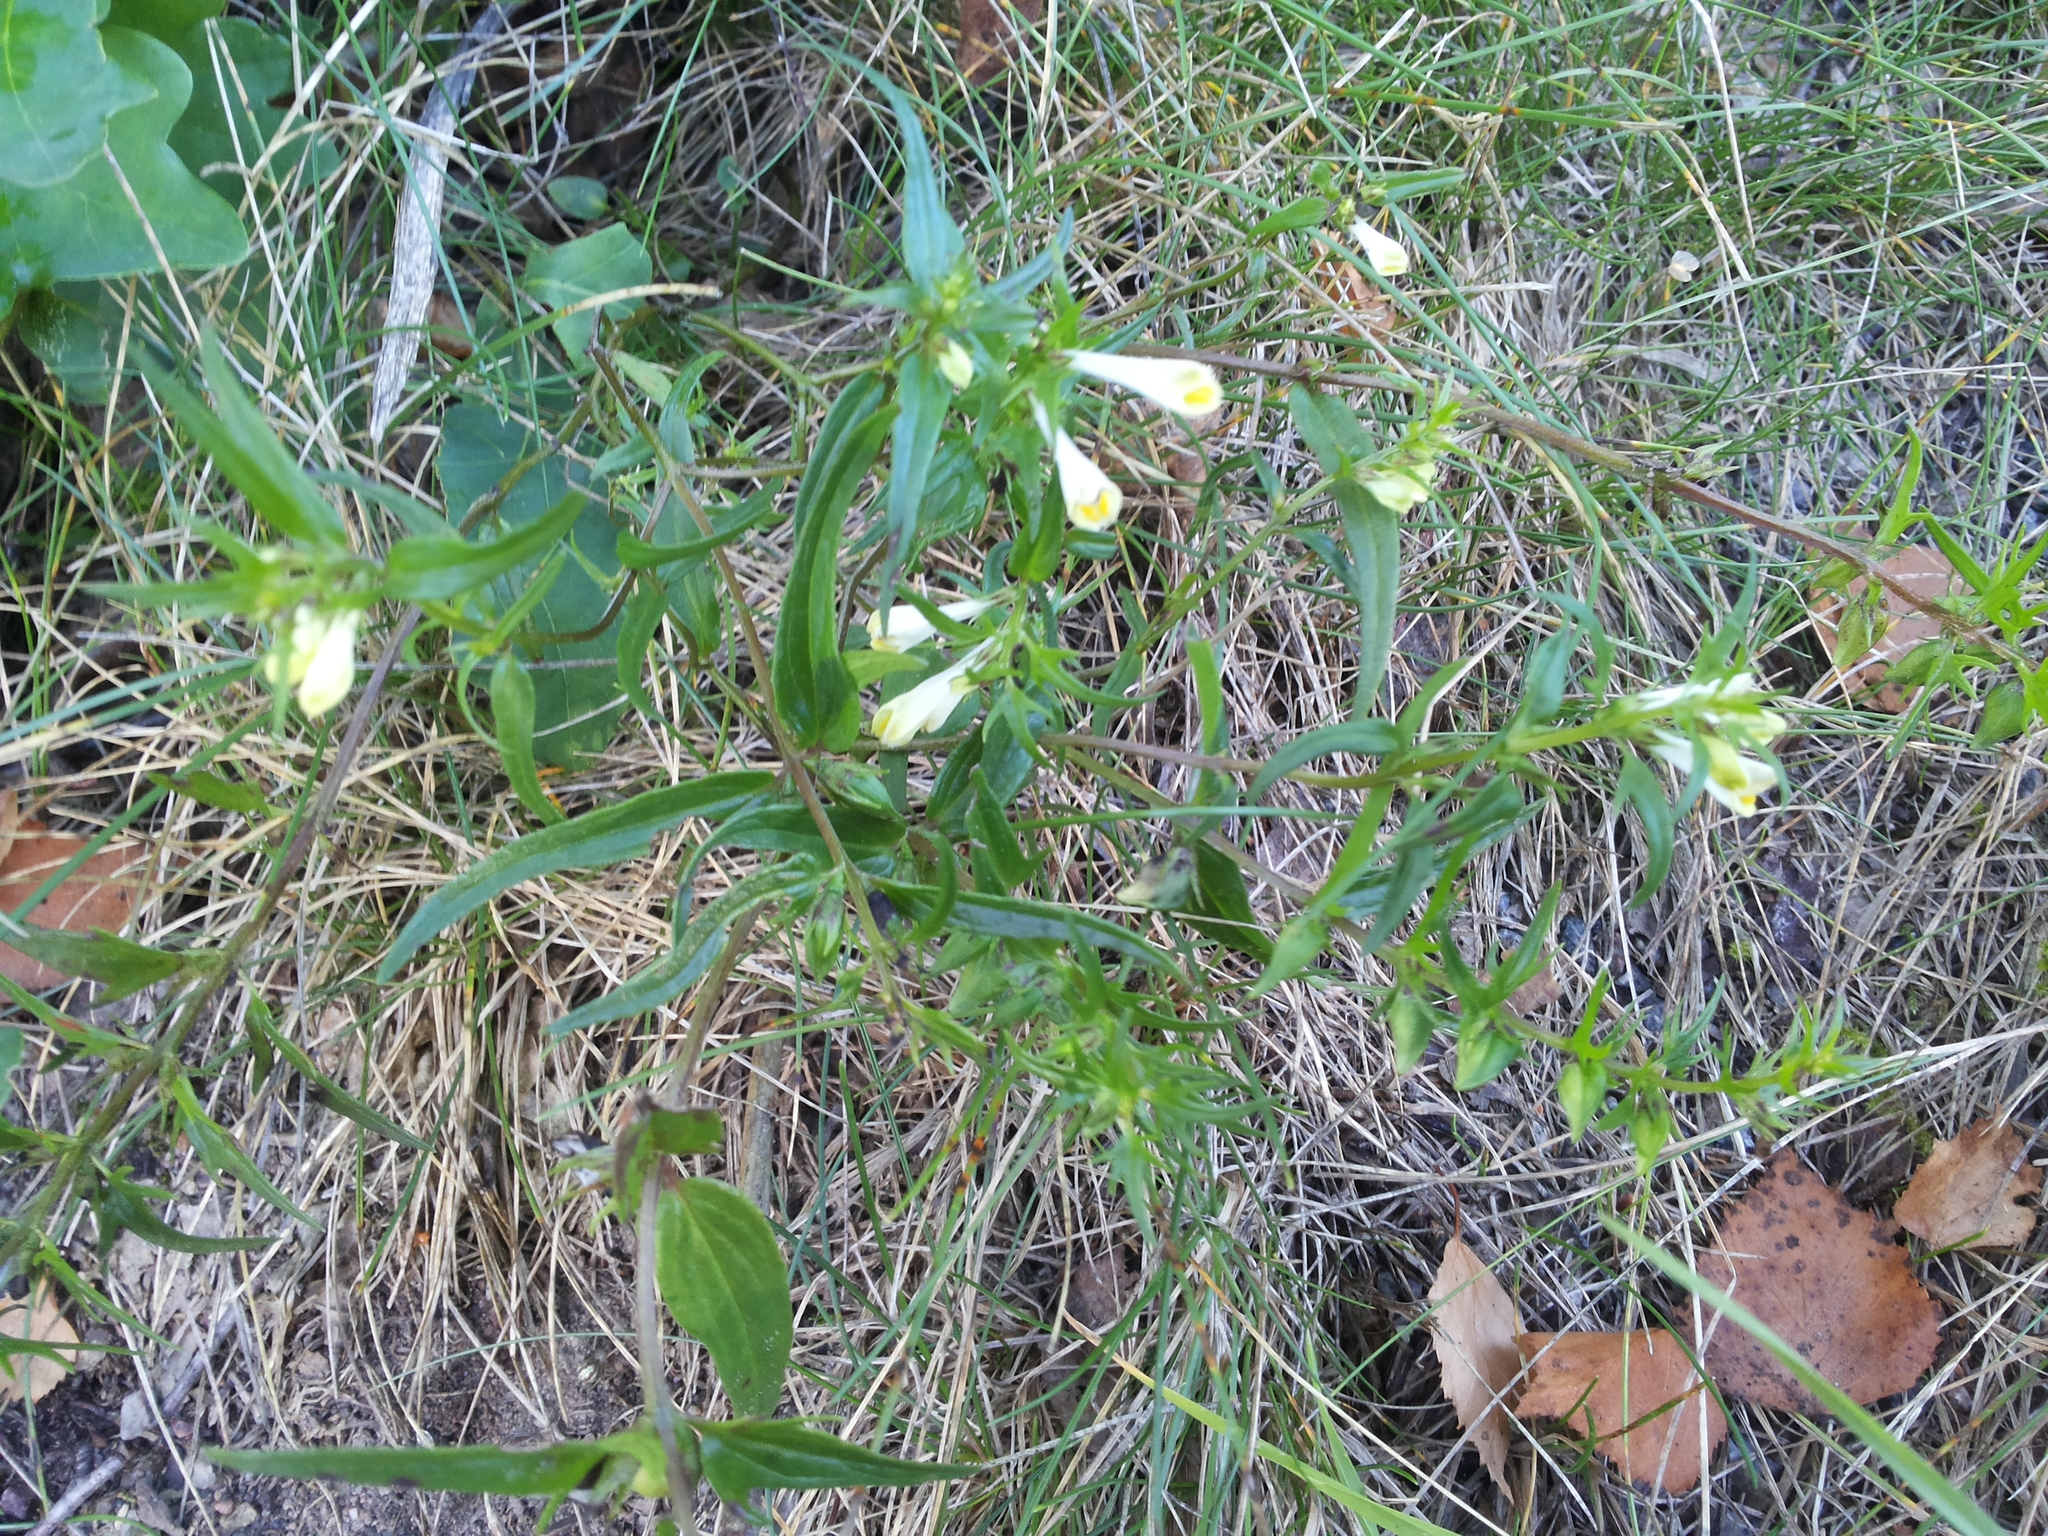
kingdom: Plantae
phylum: Tracheophyta
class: Magnoliopsida
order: Lamiales
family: Orobanchaceae
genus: Melampyrum
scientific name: Melampyrum pratense
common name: Common cow-wheat
